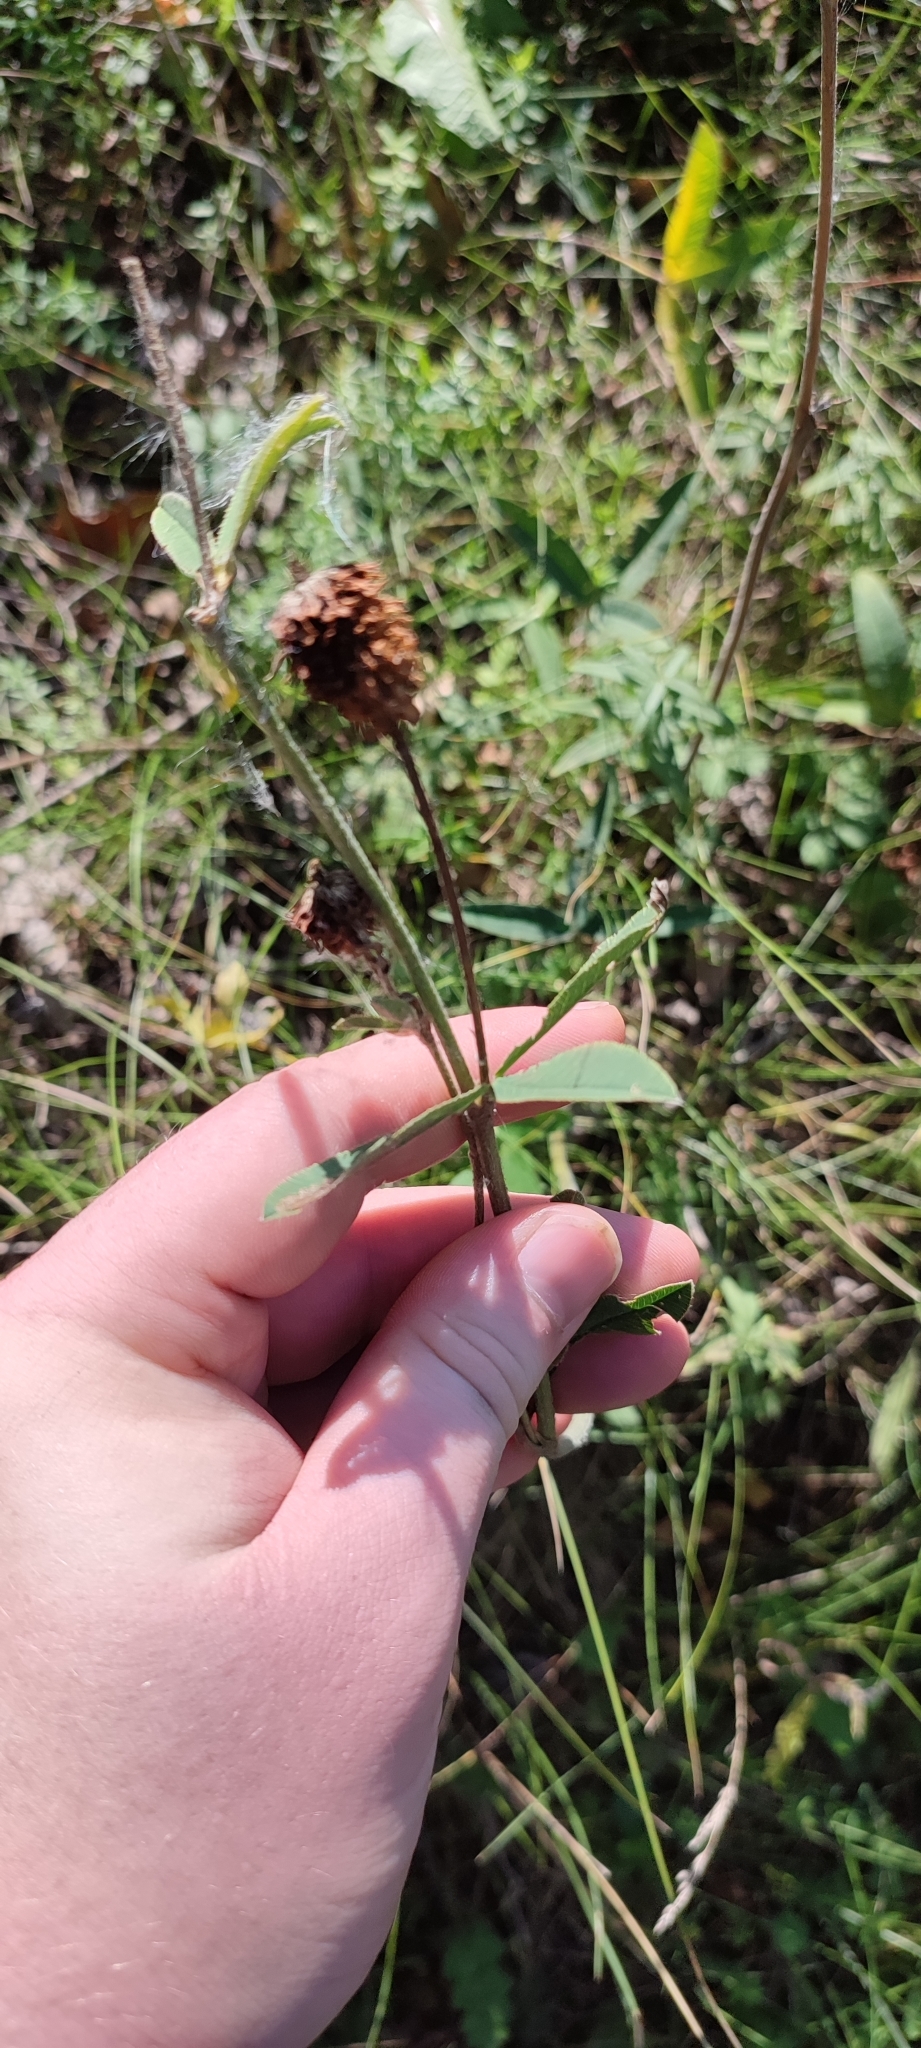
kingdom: Plantae
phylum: Tracheophyta
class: Magnoliopsida
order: Fabales
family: Fabaceae
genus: Trifolium
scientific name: Trifolium montanum
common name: Mountain clover
